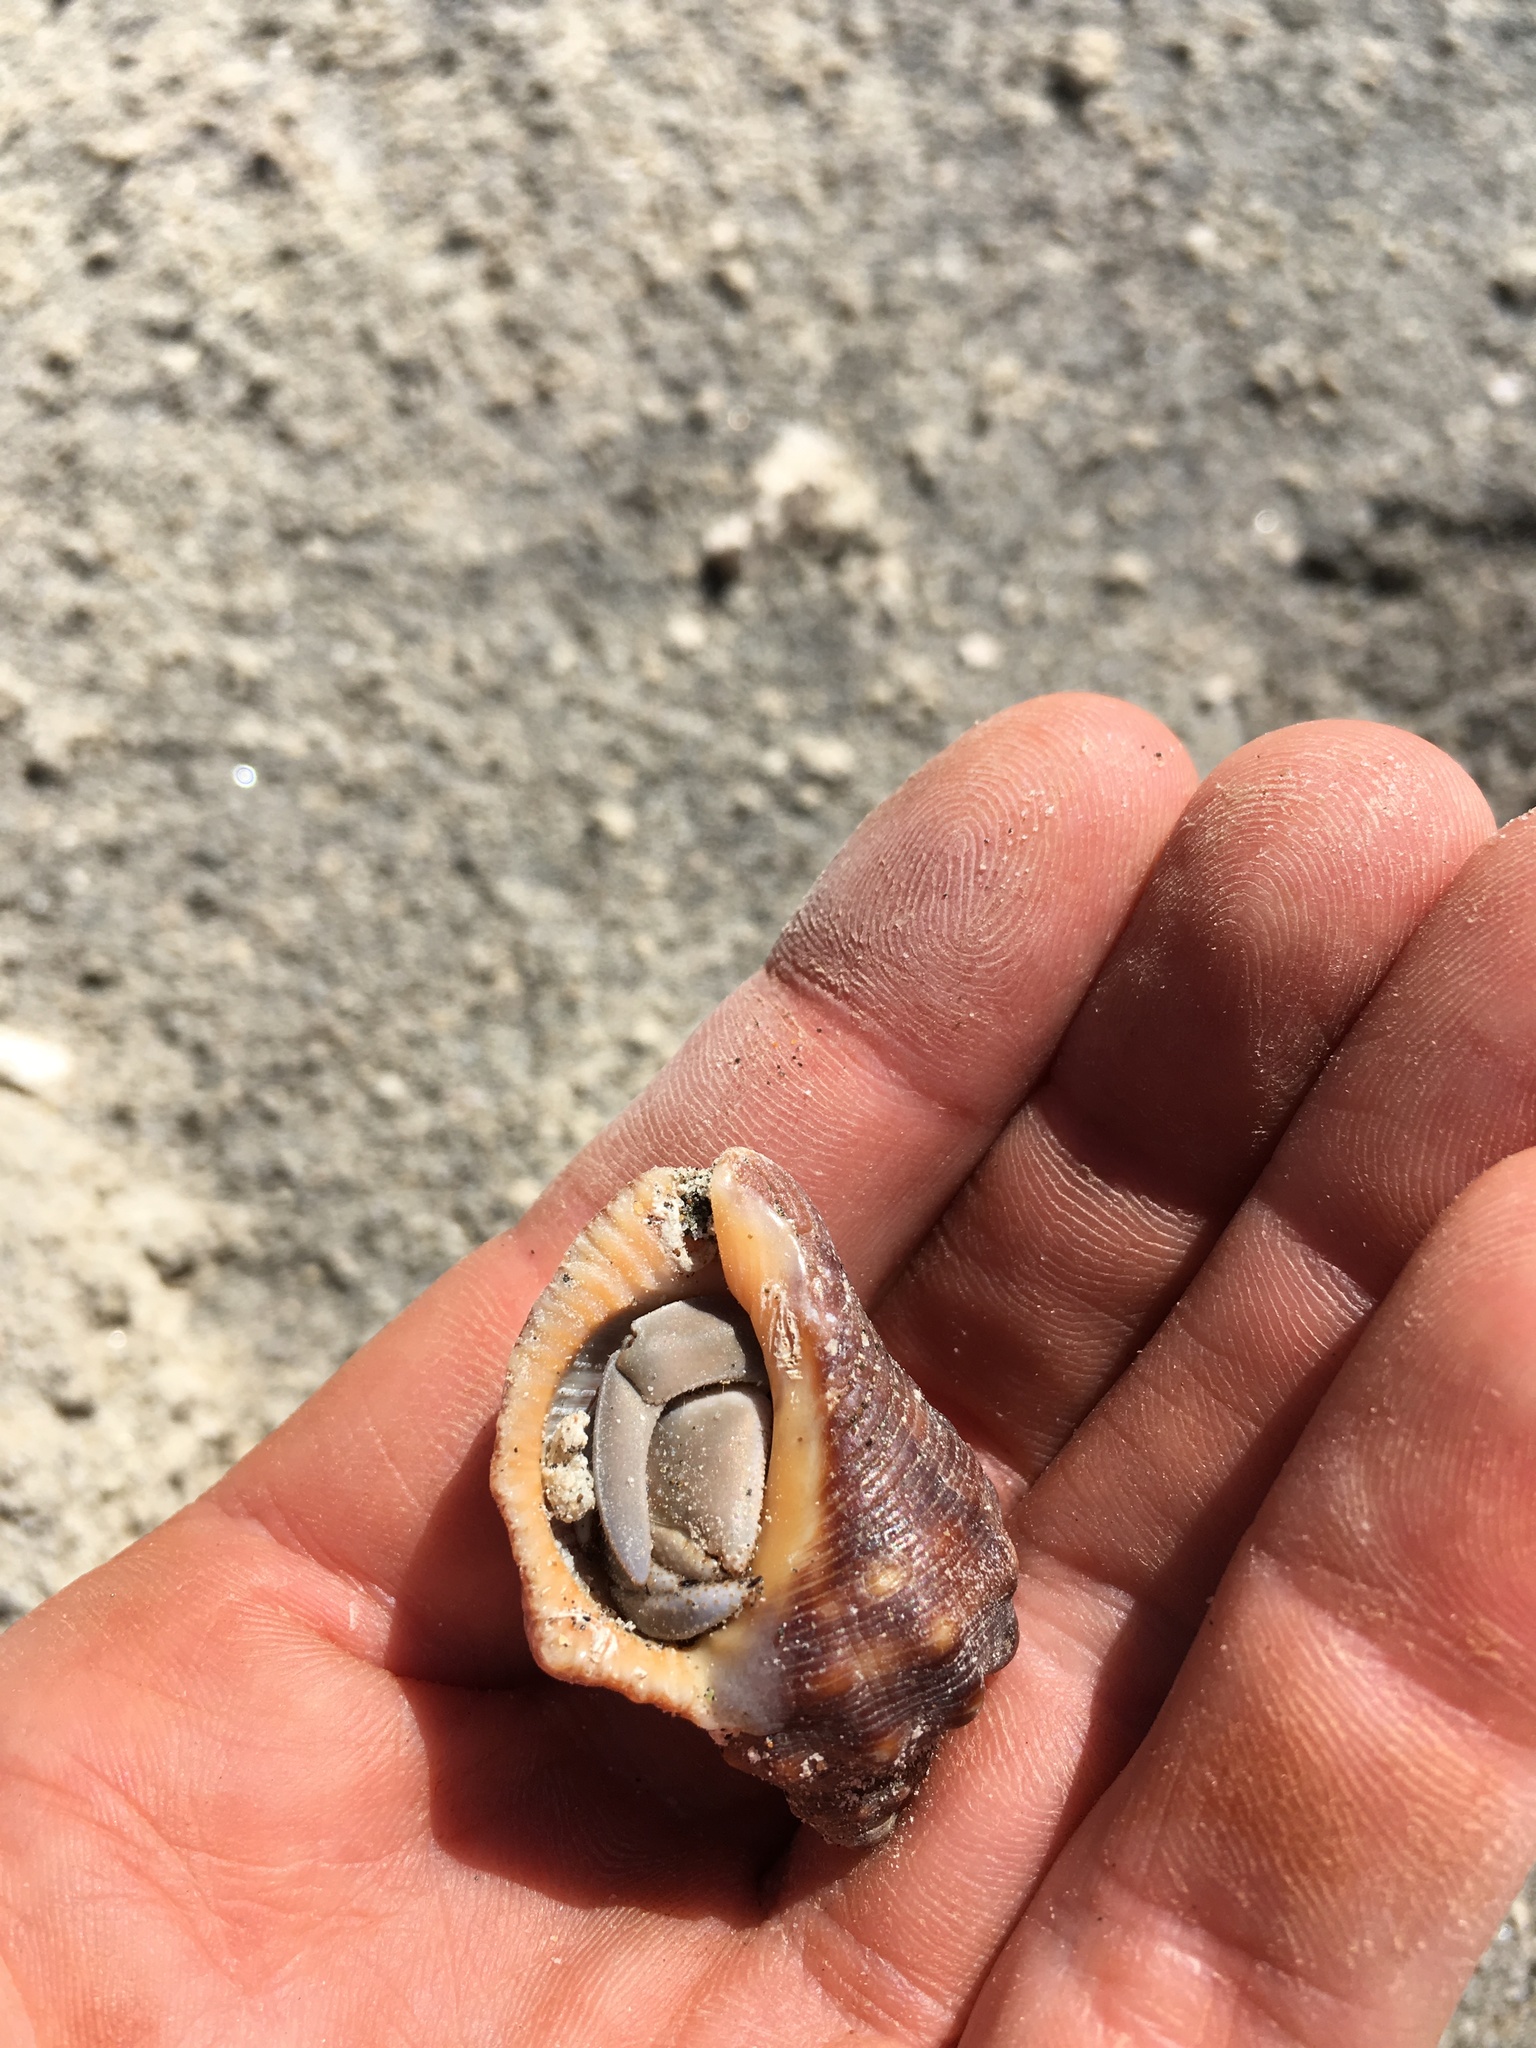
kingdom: Animalia
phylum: Arthropoda
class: Malacostraca
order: Decapoda
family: Coenobitidae
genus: Coenobita
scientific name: Coenobita compressus
